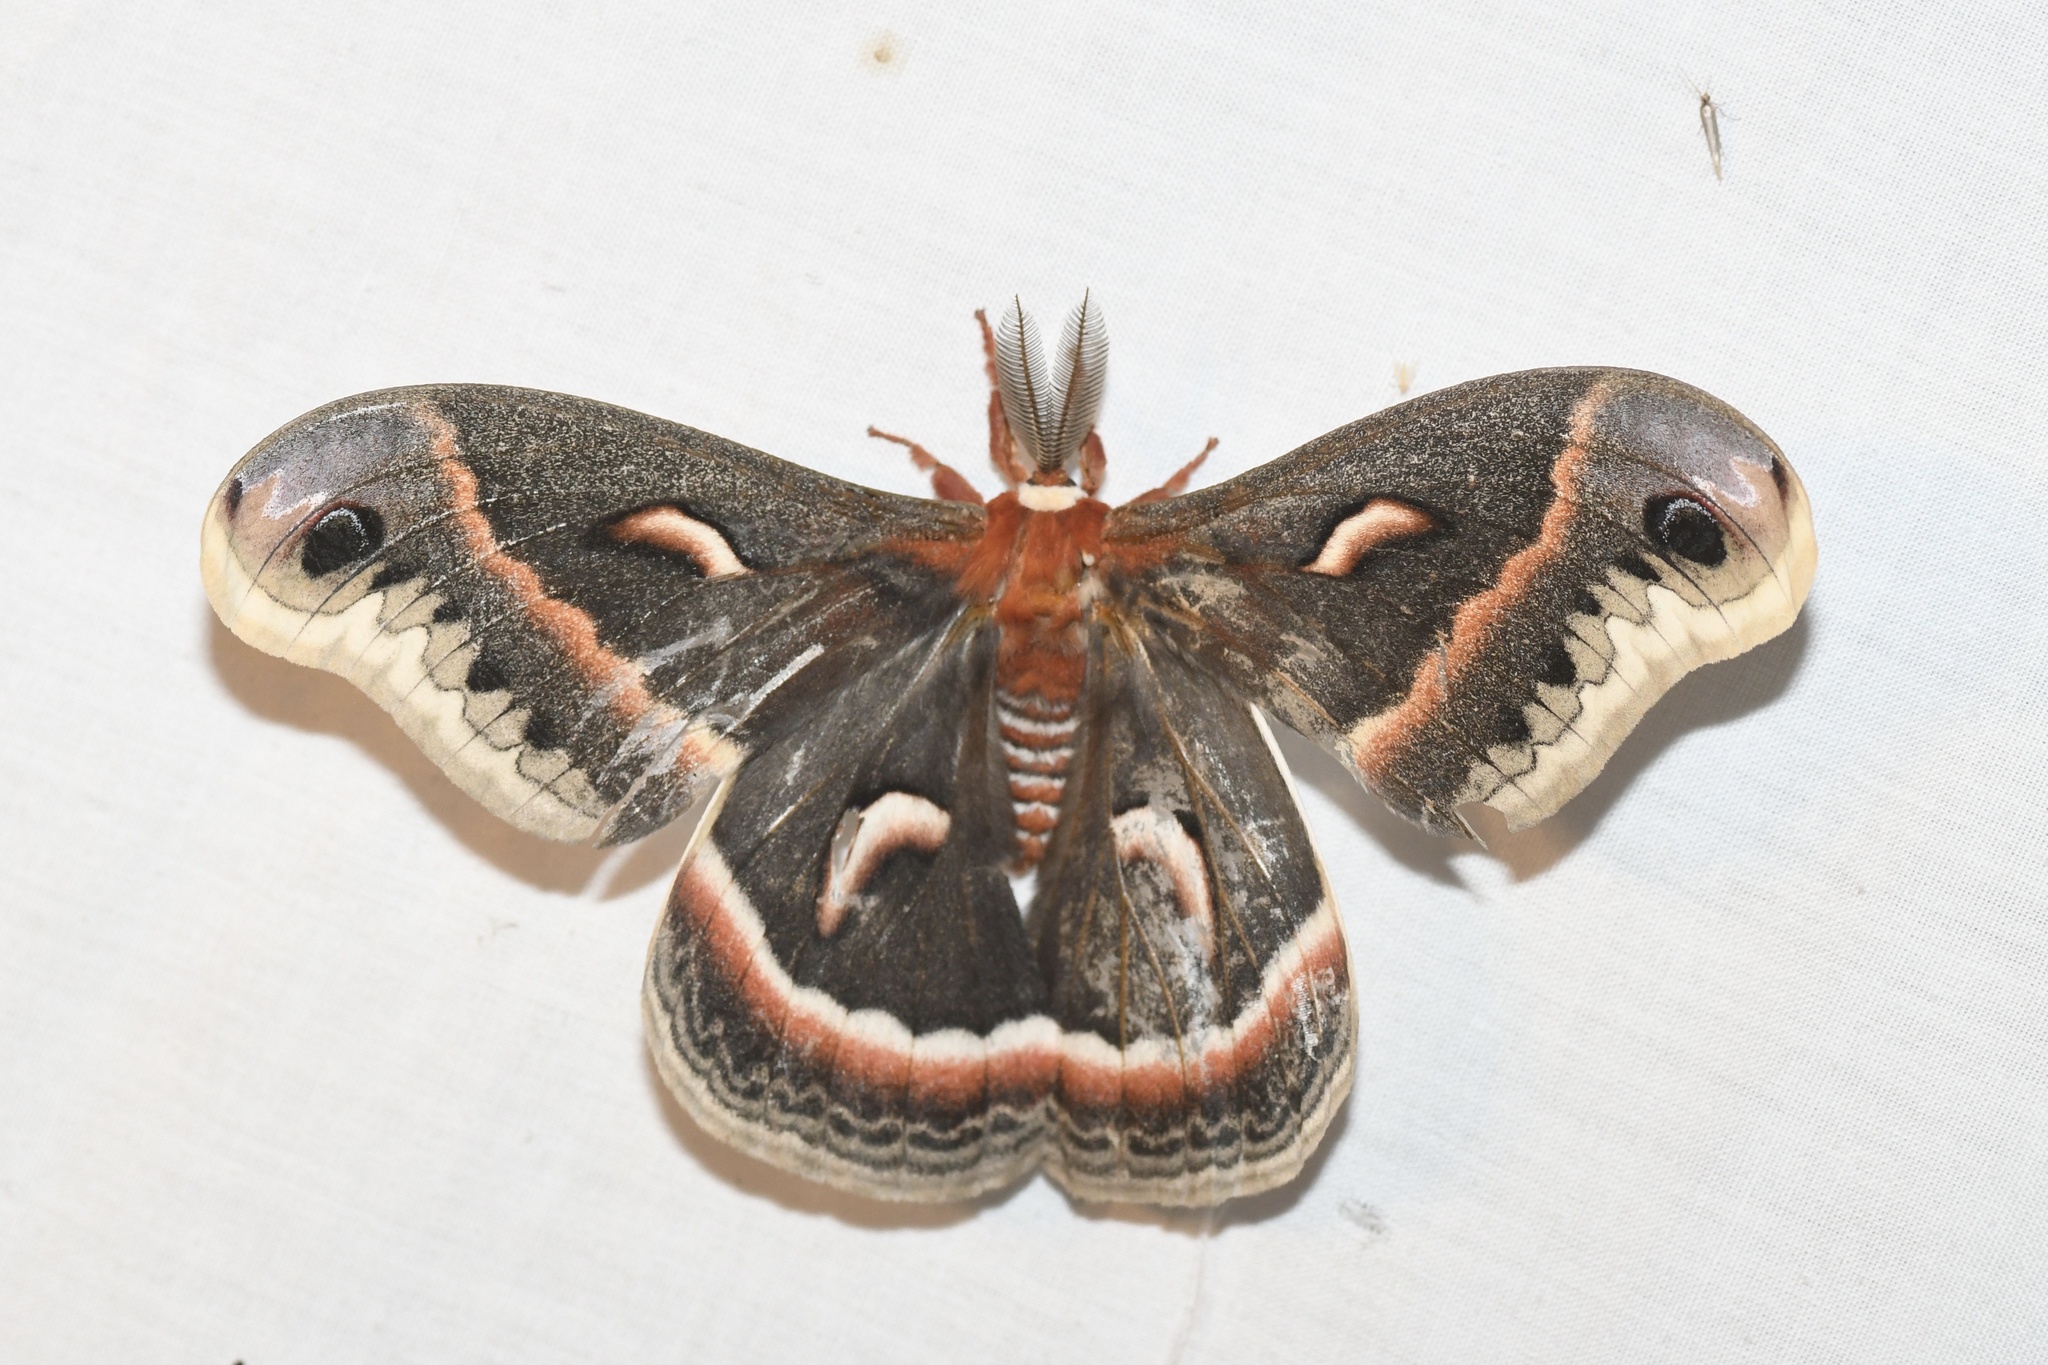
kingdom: Animalia
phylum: Arthropoda
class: Insecta
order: Lepidoptera
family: Saturniidae
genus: Hyalophora
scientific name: Hyalophora cecropia
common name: Cecropia silkmoth
